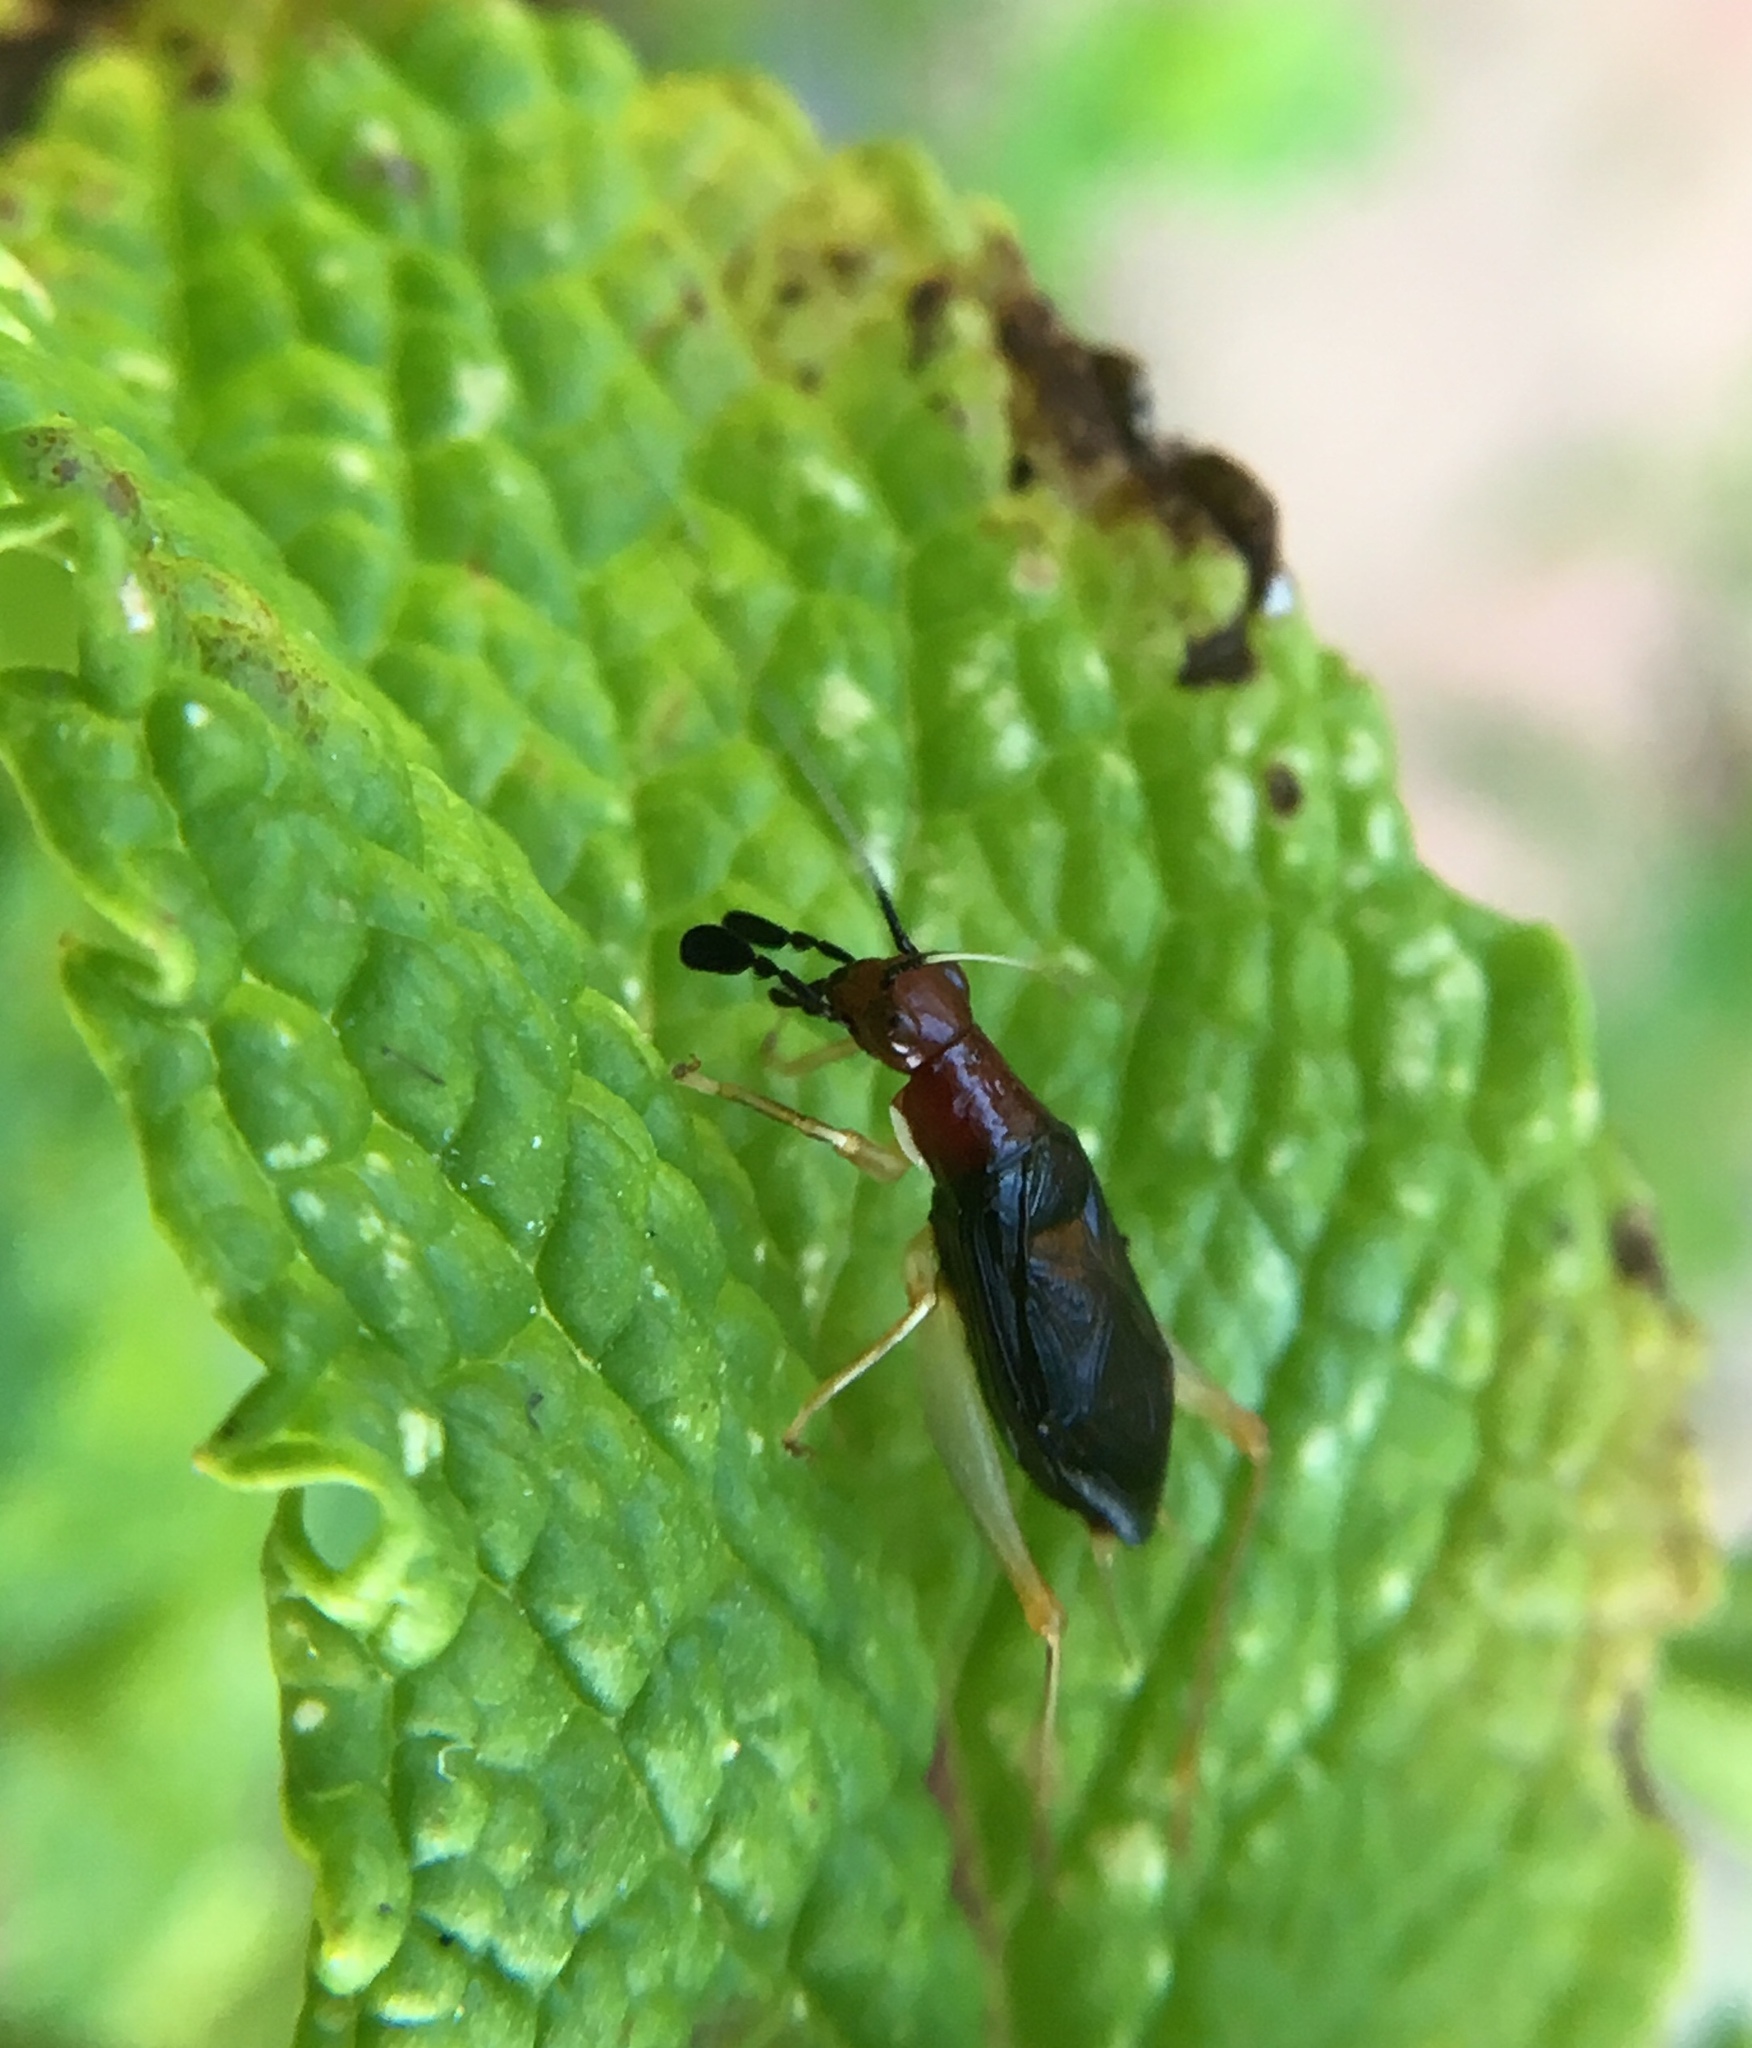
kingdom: Animalia
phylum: Arthropoda
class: Insecta
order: Orthoptera
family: Trigonidiidae
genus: Phyllopalpus
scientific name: Phyllopalpus pulchellus
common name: Handsome trig
